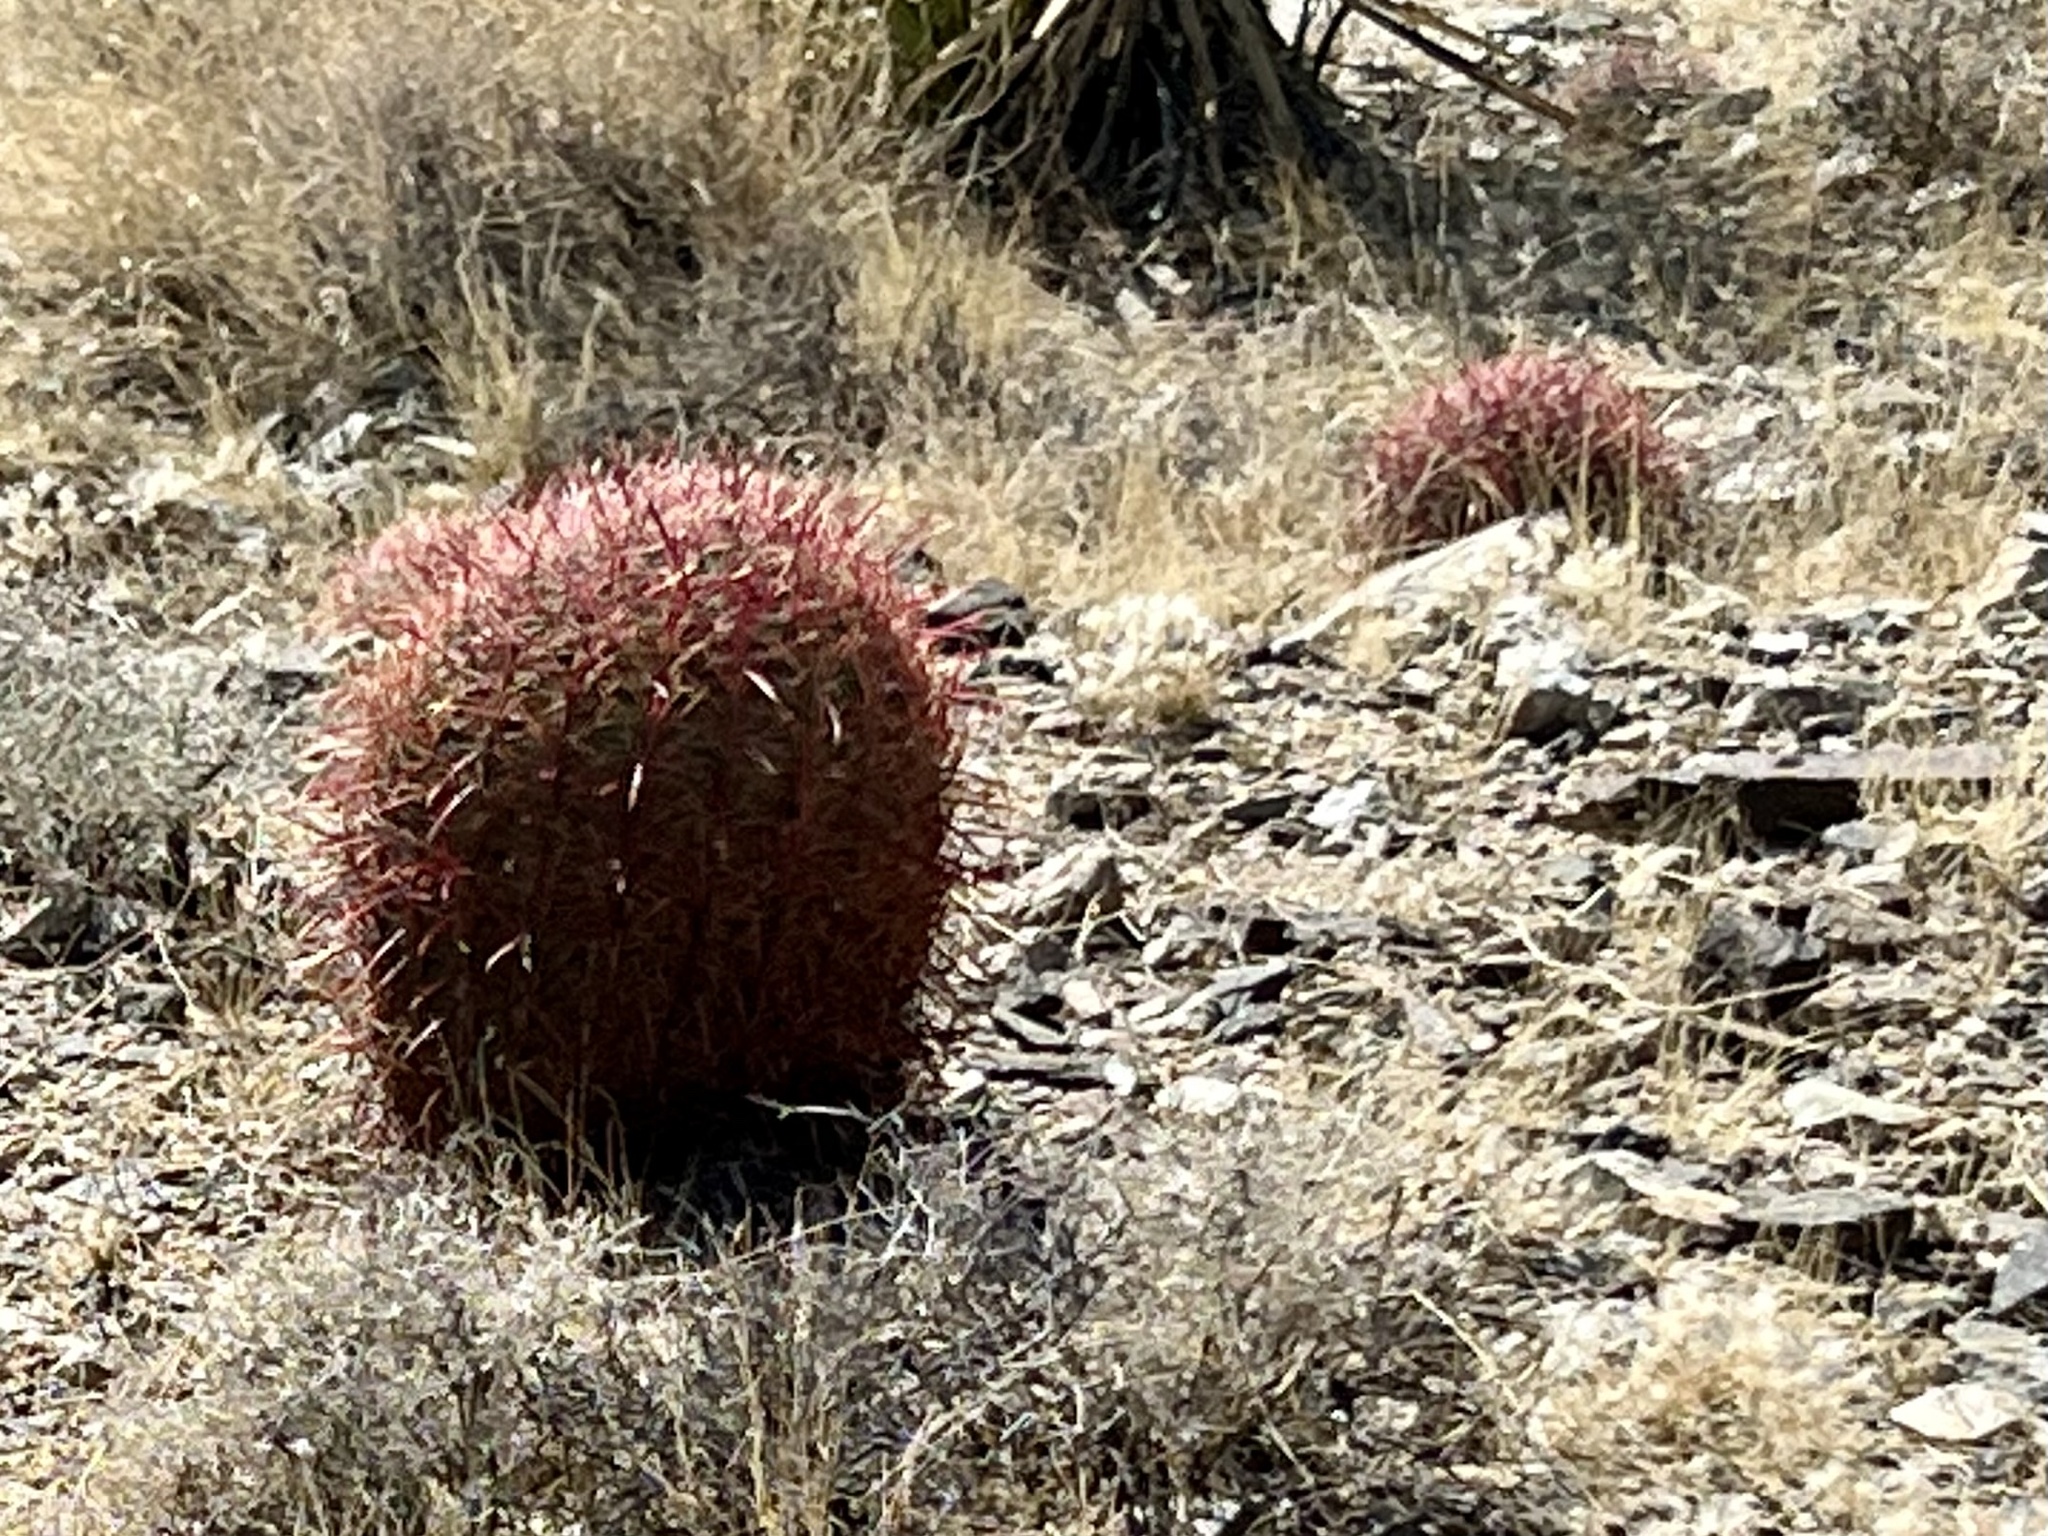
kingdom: Plantae
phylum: Tracheophyta
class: Magnoliopsida
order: Caryophyllales
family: Cactaceae
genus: Ferocactus
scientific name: Ferocactus cylindraceus
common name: California barrel cactus
